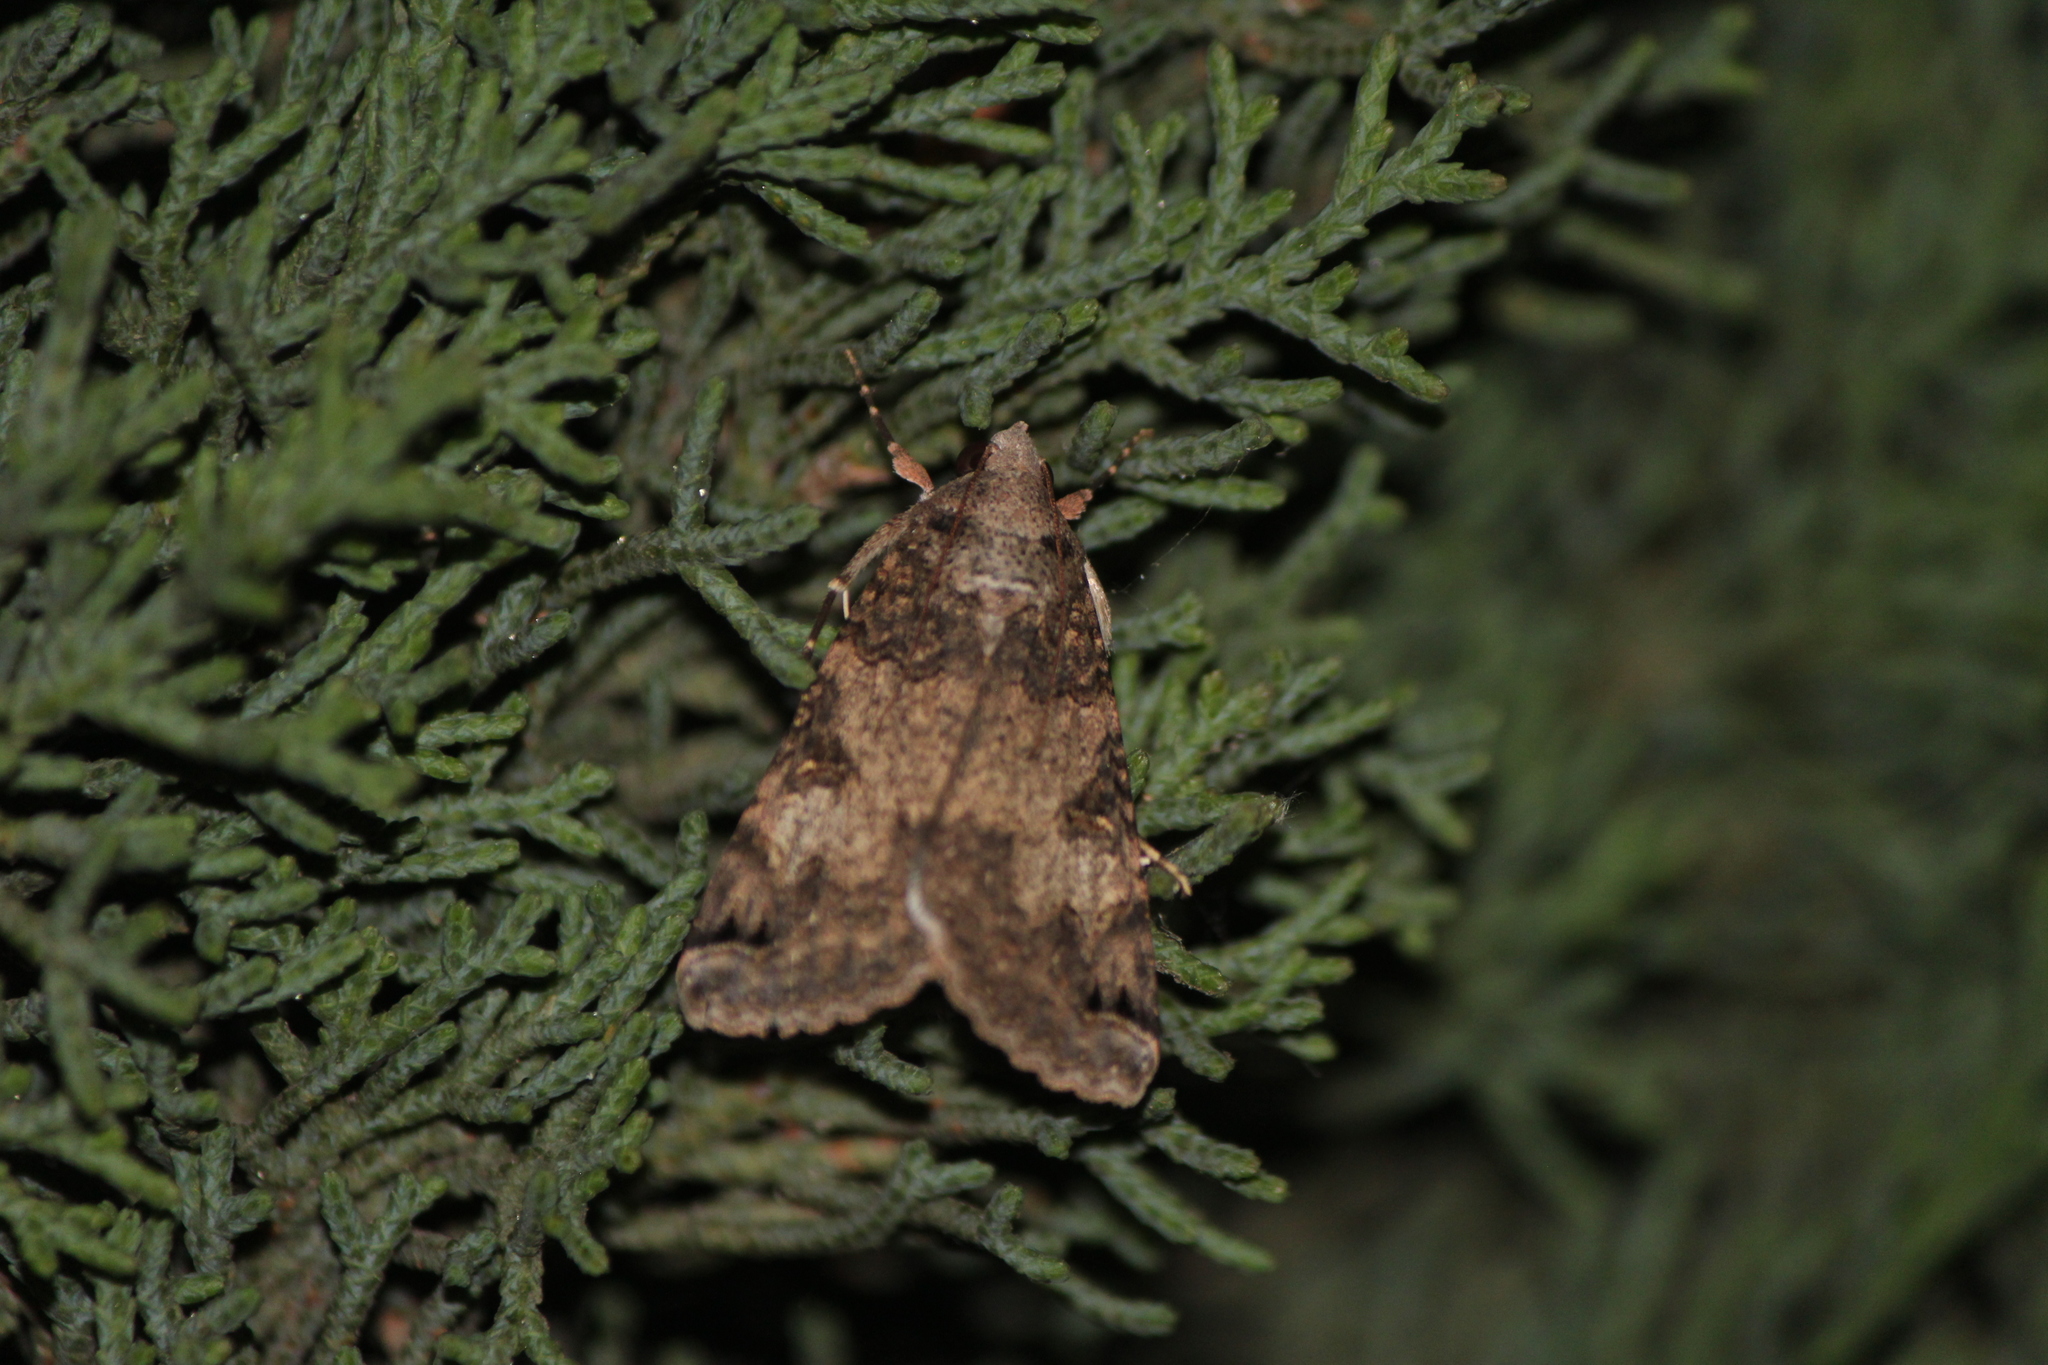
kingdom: Animalia
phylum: Arthropoda
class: Insecta
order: Lepidoptera
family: Erebidae
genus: Melipotis
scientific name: Melipotis agrotoides
